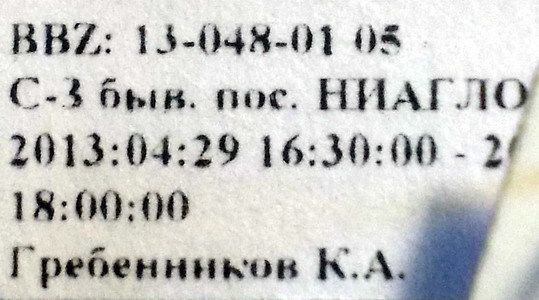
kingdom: Animalia
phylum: Arthropoda
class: Insecta
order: Hemiptera
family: Pentatomidae
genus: Leprosoma
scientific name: Leprosoma inconspicuum
